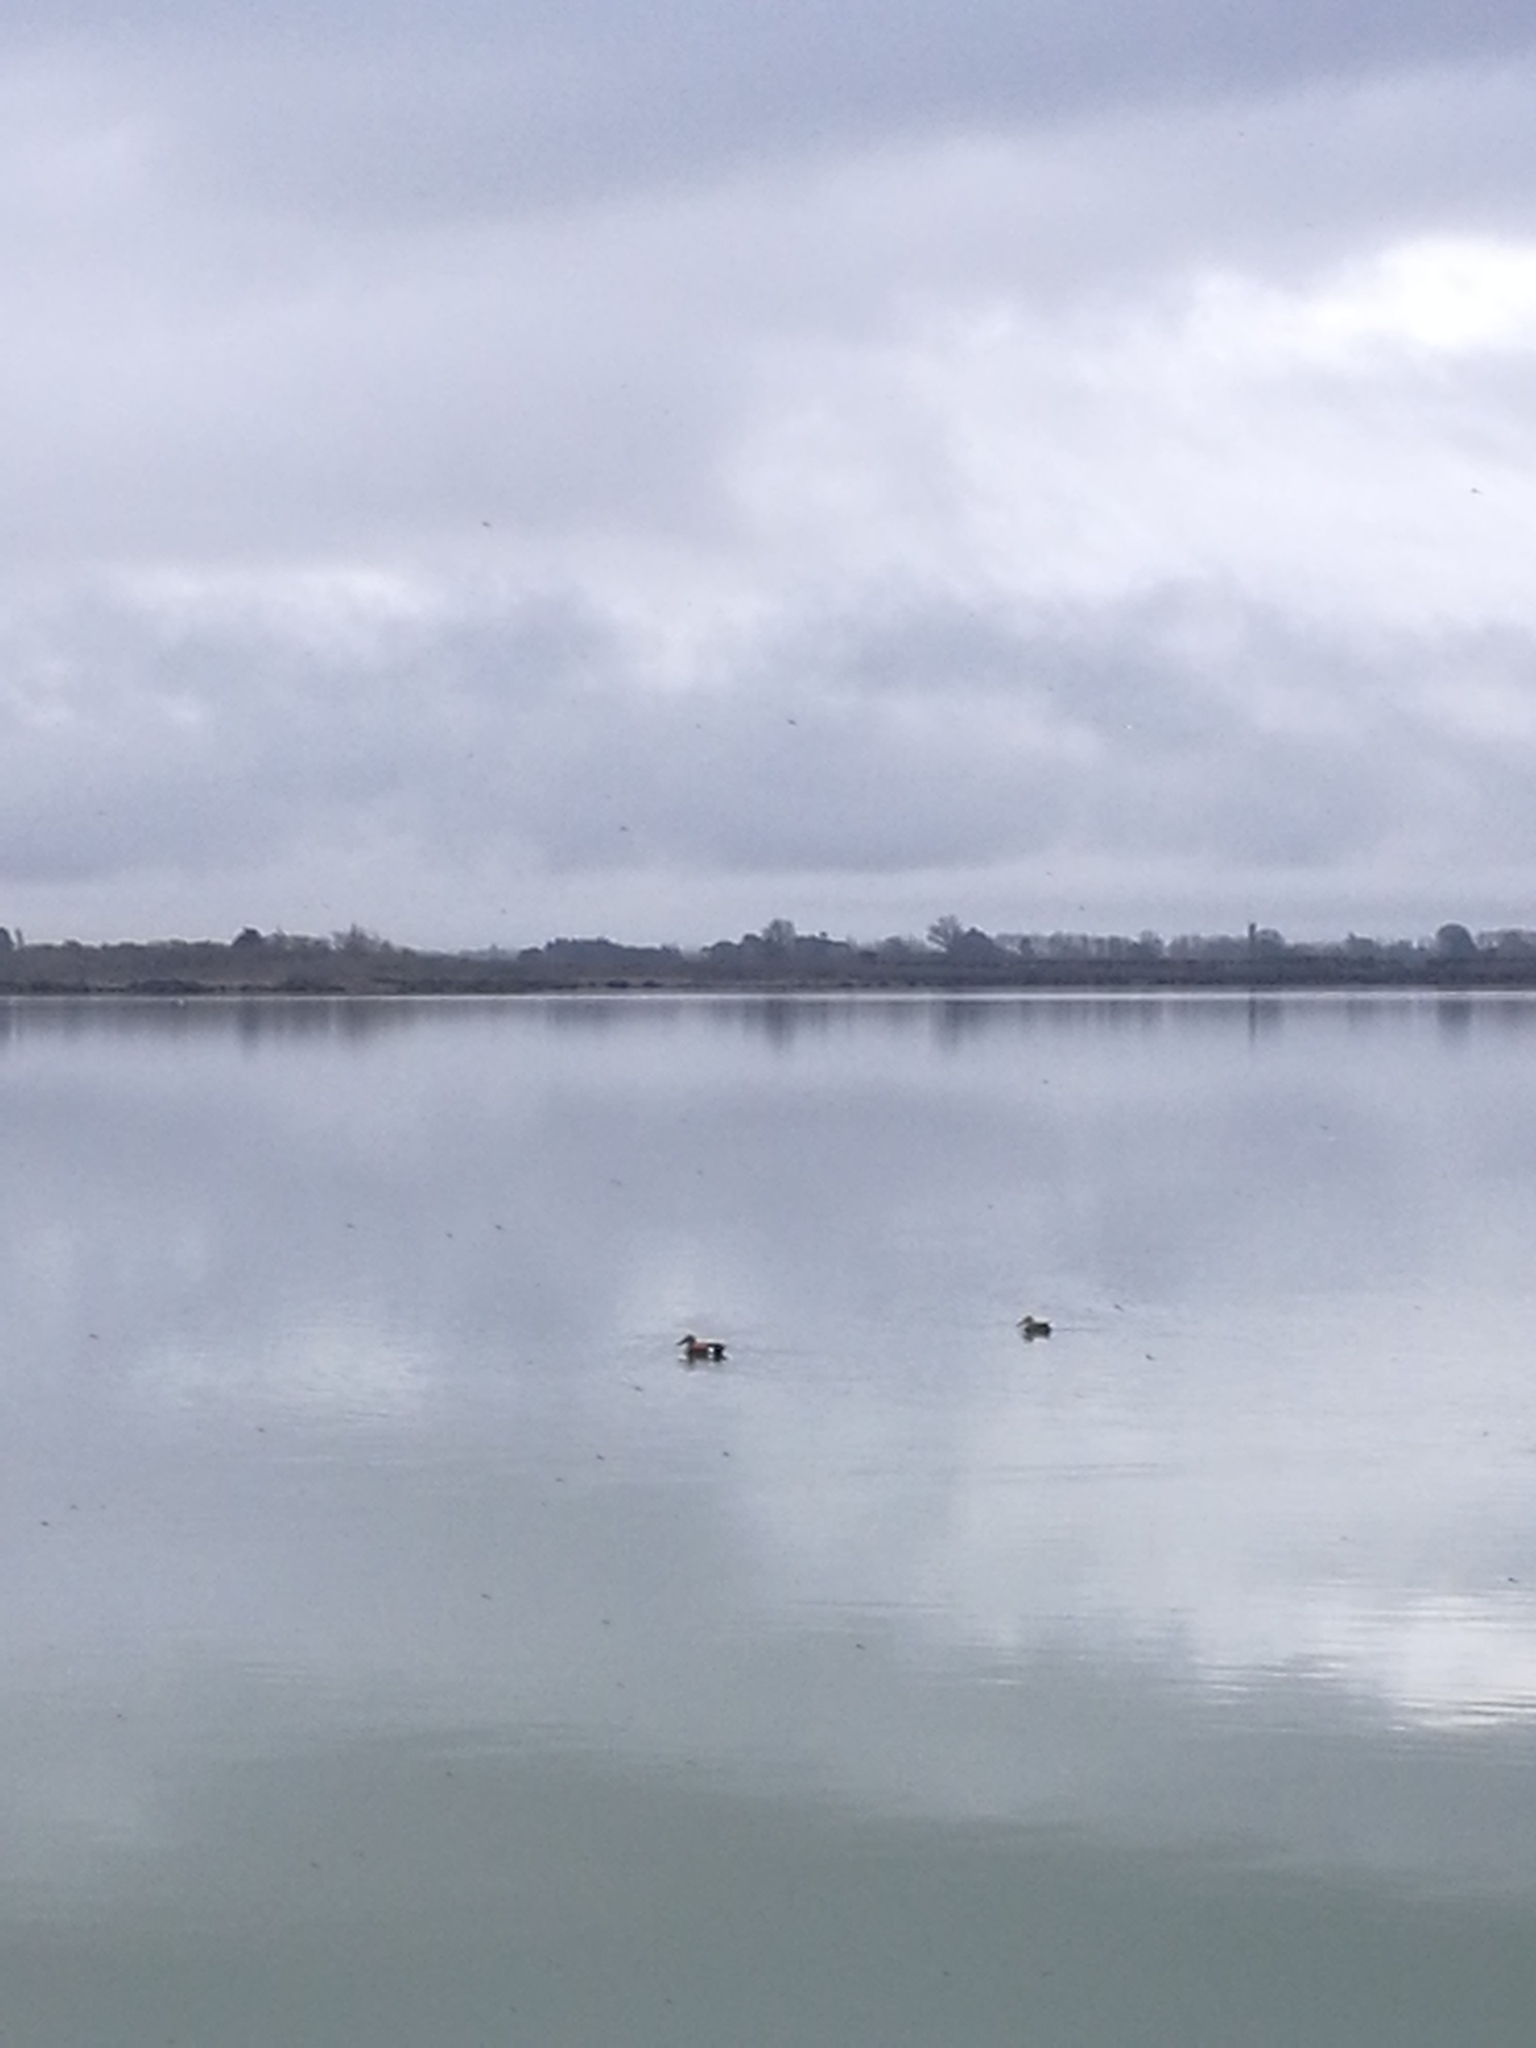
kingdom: Animalia
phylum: Chordata
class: Aves
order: Anseriformes
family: Anatidae
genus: Spatula
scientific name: Spatula rhynchotis
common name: Australian shoveler
